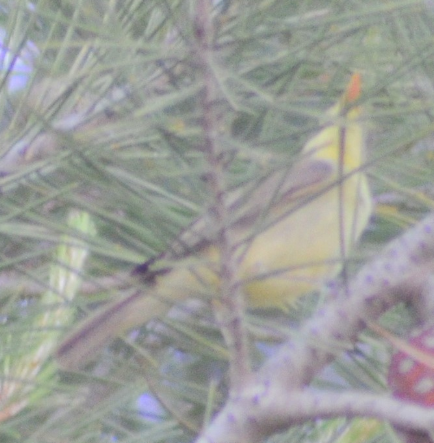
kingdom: Animalia
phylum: Chordata
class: Aves
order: Passeriformes
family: Acrocephalidae
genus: Hippolais
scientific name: Hippolais polyglotta
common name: Melodious warbler
